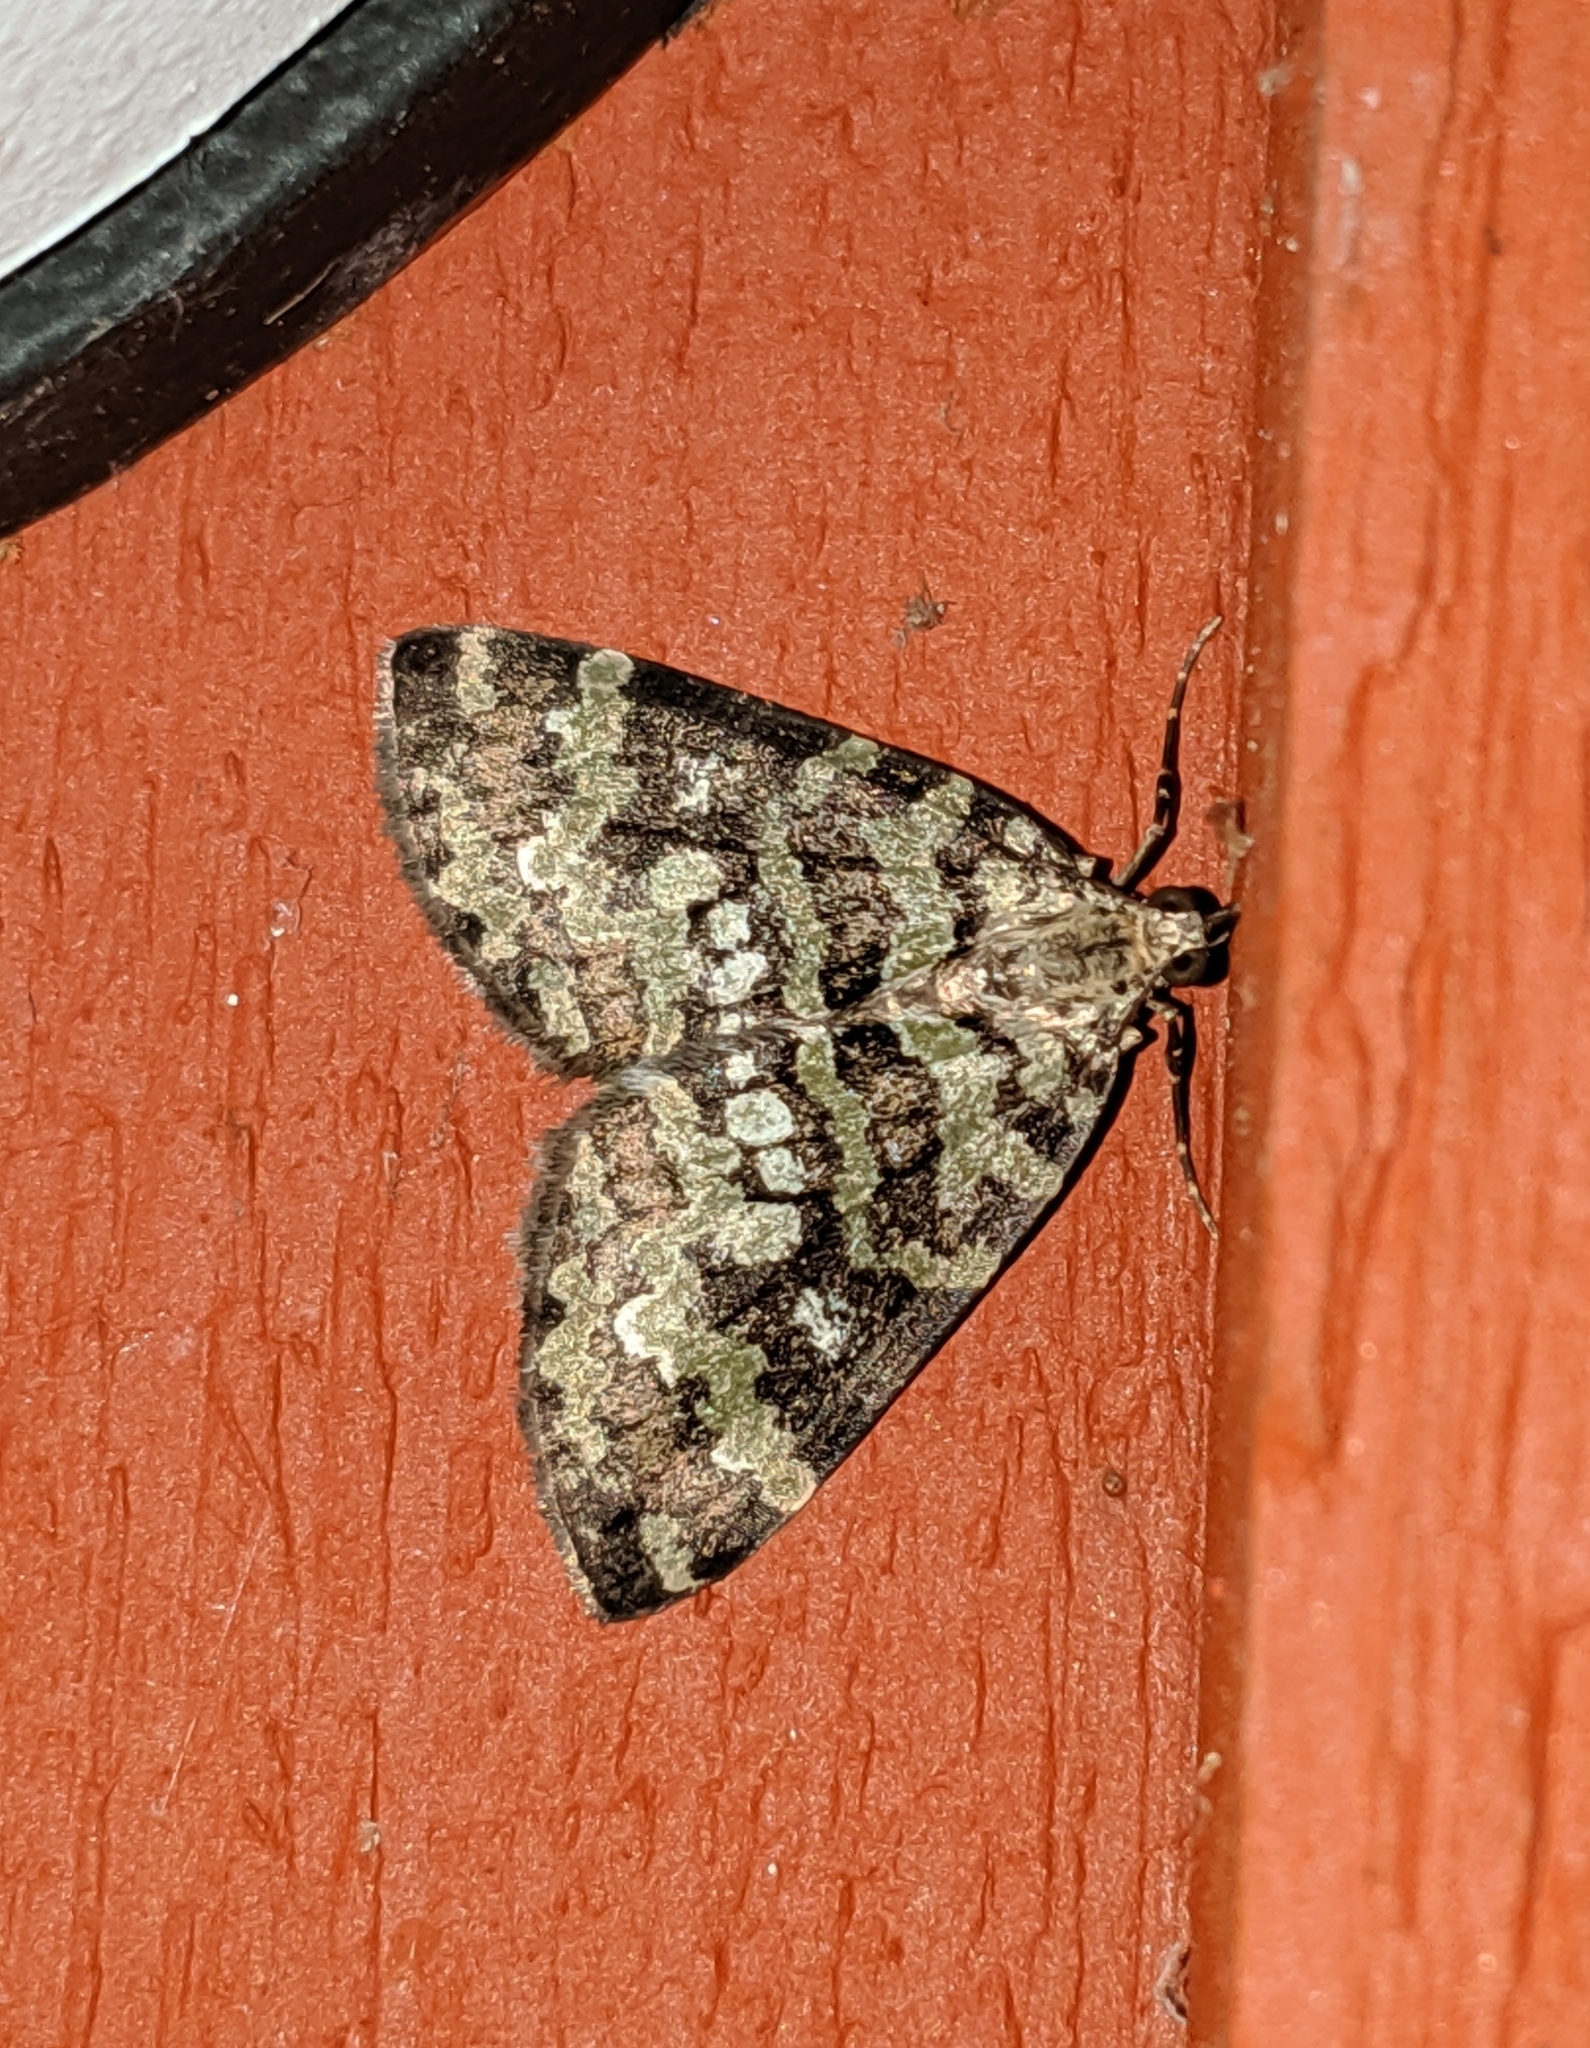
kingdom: Animalia
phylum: Arthropoda
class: Insecta
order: Lepidoptera
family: Geometridae
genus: Hydriomena
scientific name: Hydriomena speciosata
